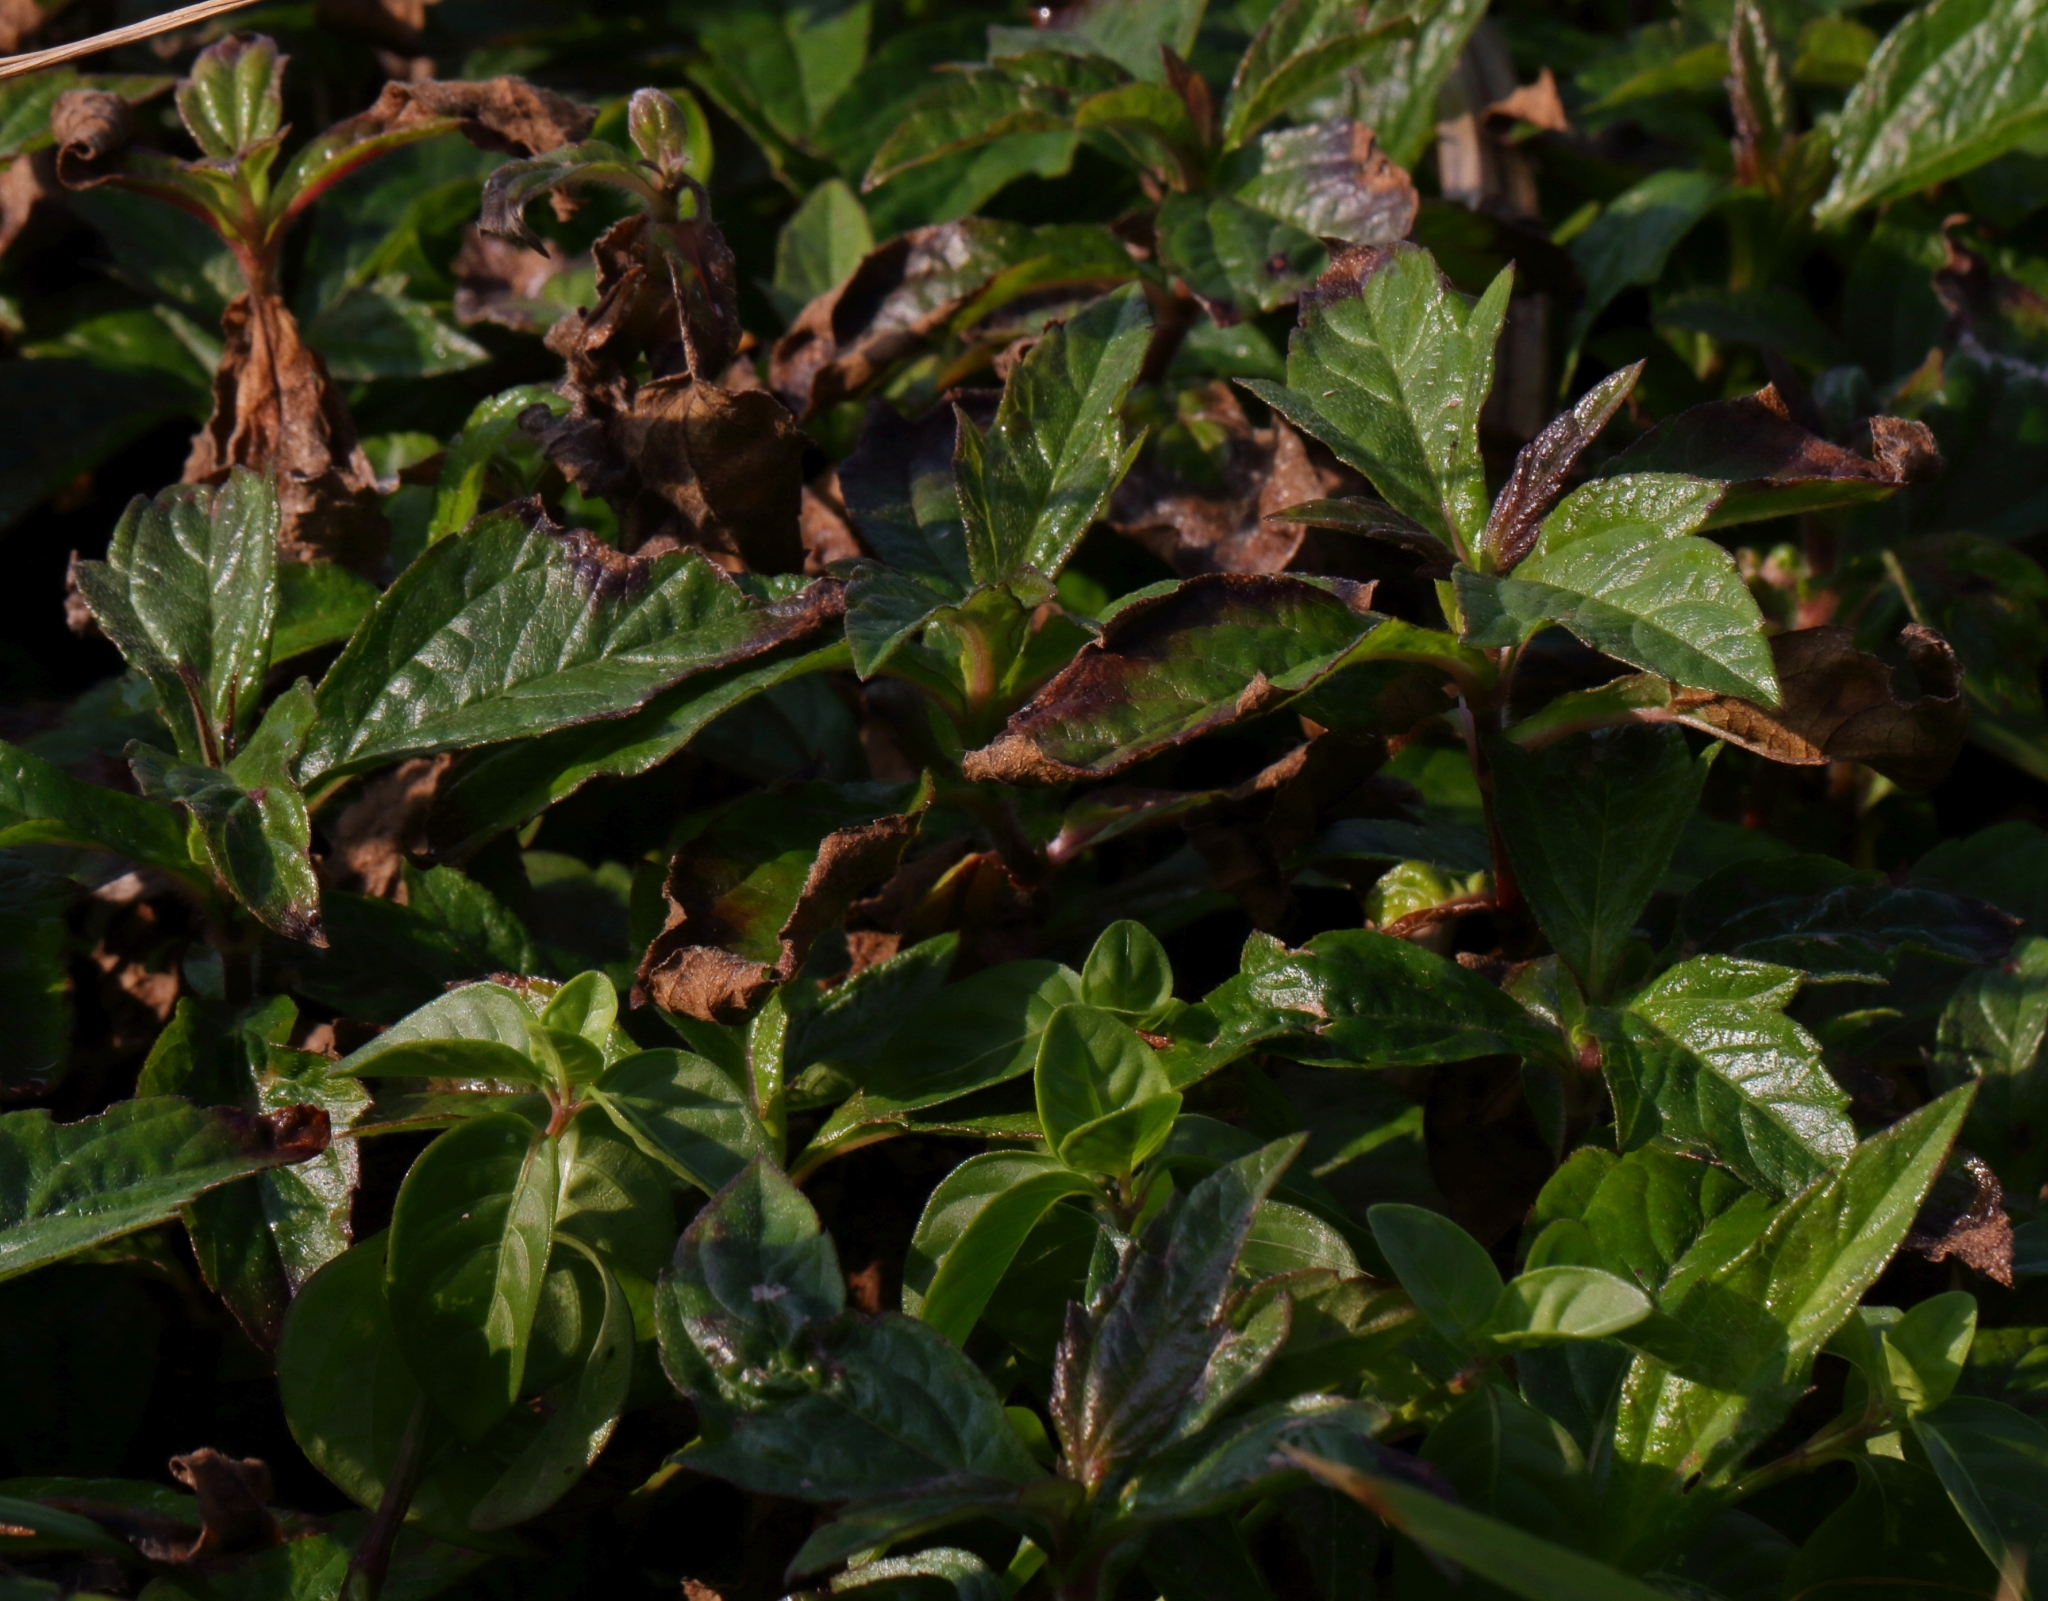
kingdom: Plantae
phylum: Tracheophyta
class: Magnoliopsida
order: Asterales
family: Asteraceae
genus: Sphagneticola
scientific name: Sphagneticola trilobata
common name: Bay biscayne creeping-oxeye
